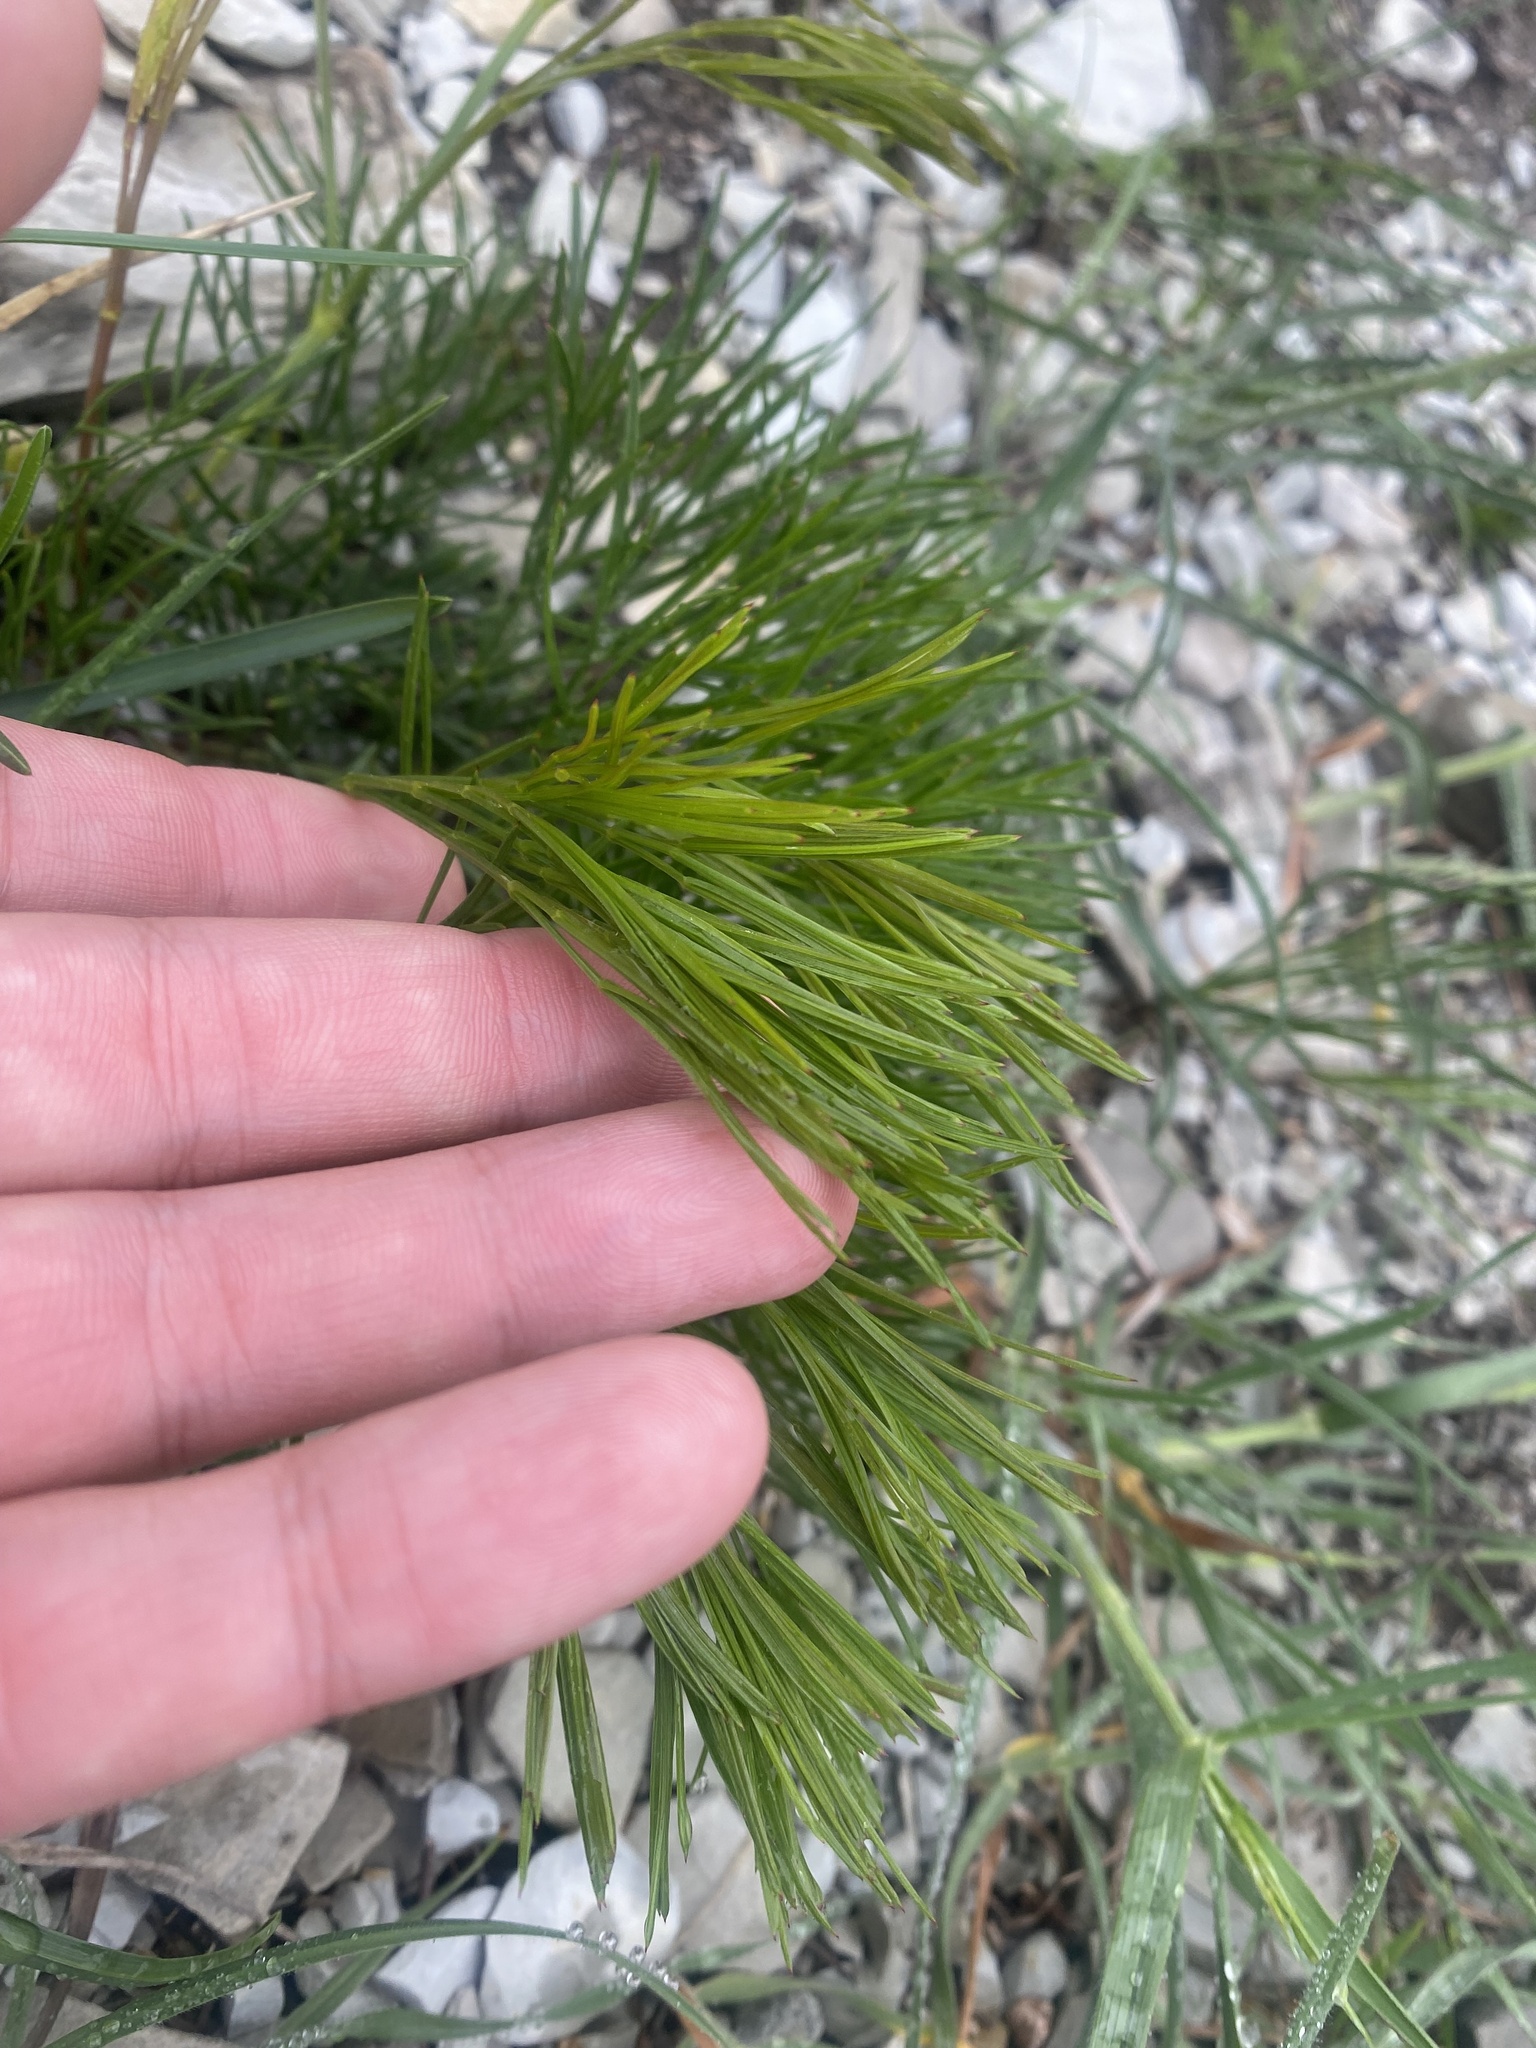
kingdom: Plantae
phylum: Tracheophyta
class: Magnoliopsida
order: Apiales
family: Apiaceae
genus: Seseli
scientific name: Seseli campestre
